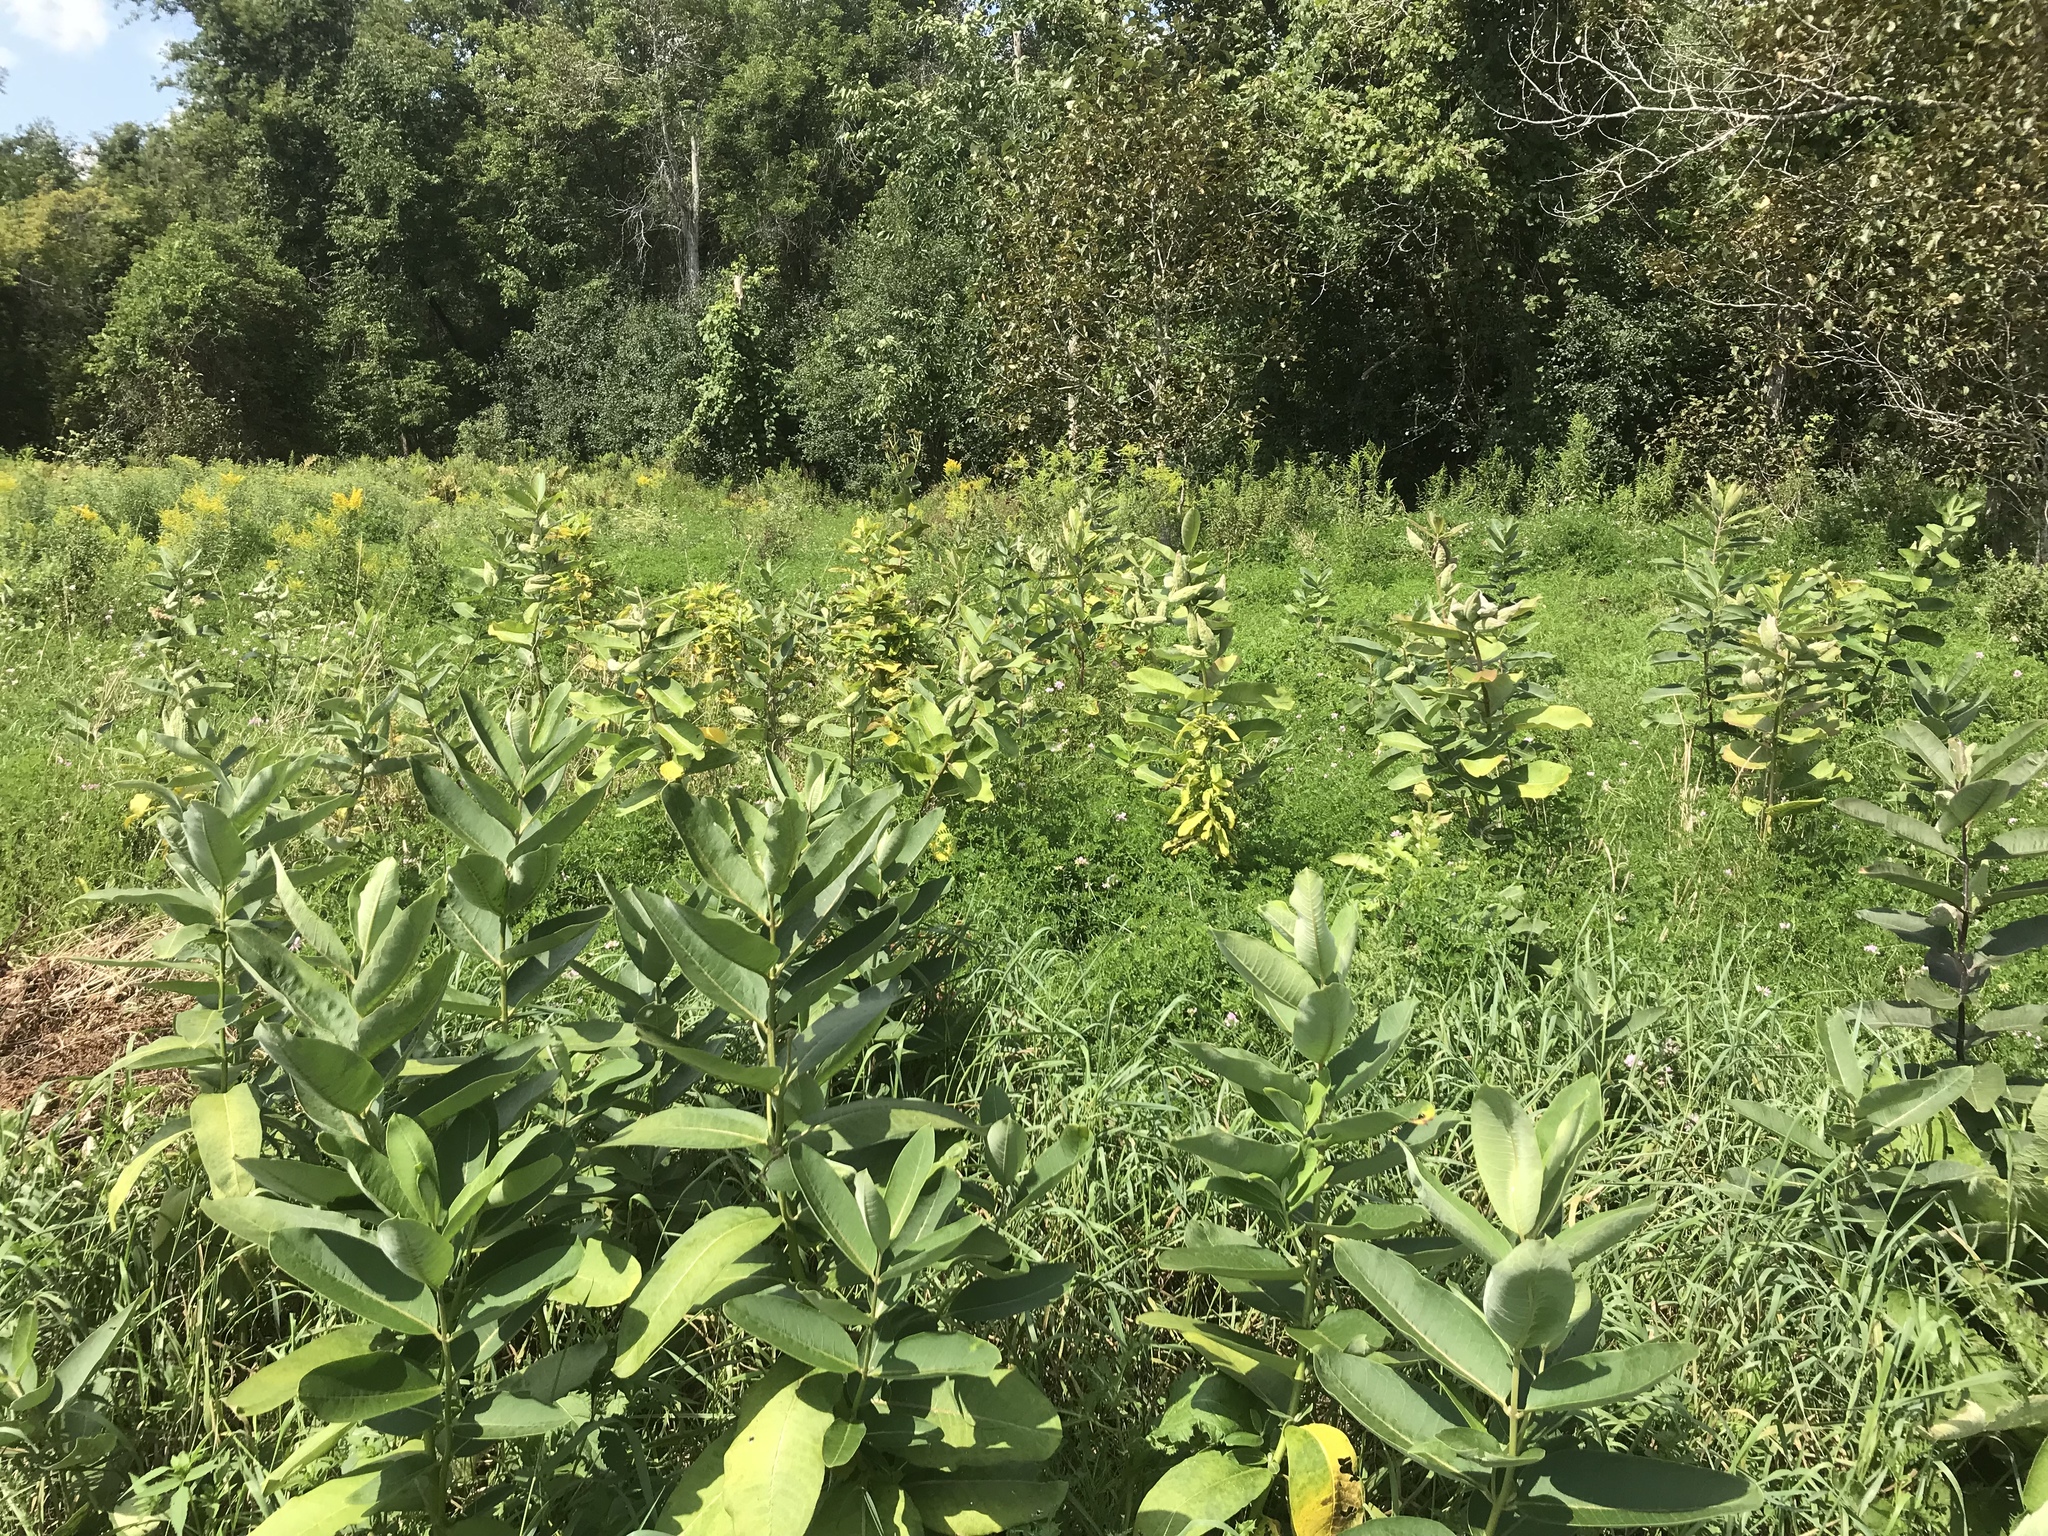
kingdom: Plantae
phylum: Tracheophyta
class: Magnoliopsida
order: Gentianales
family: Apocynaceae
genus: Asclepias
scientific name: Asclepias syriaca
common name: Common milkweed
